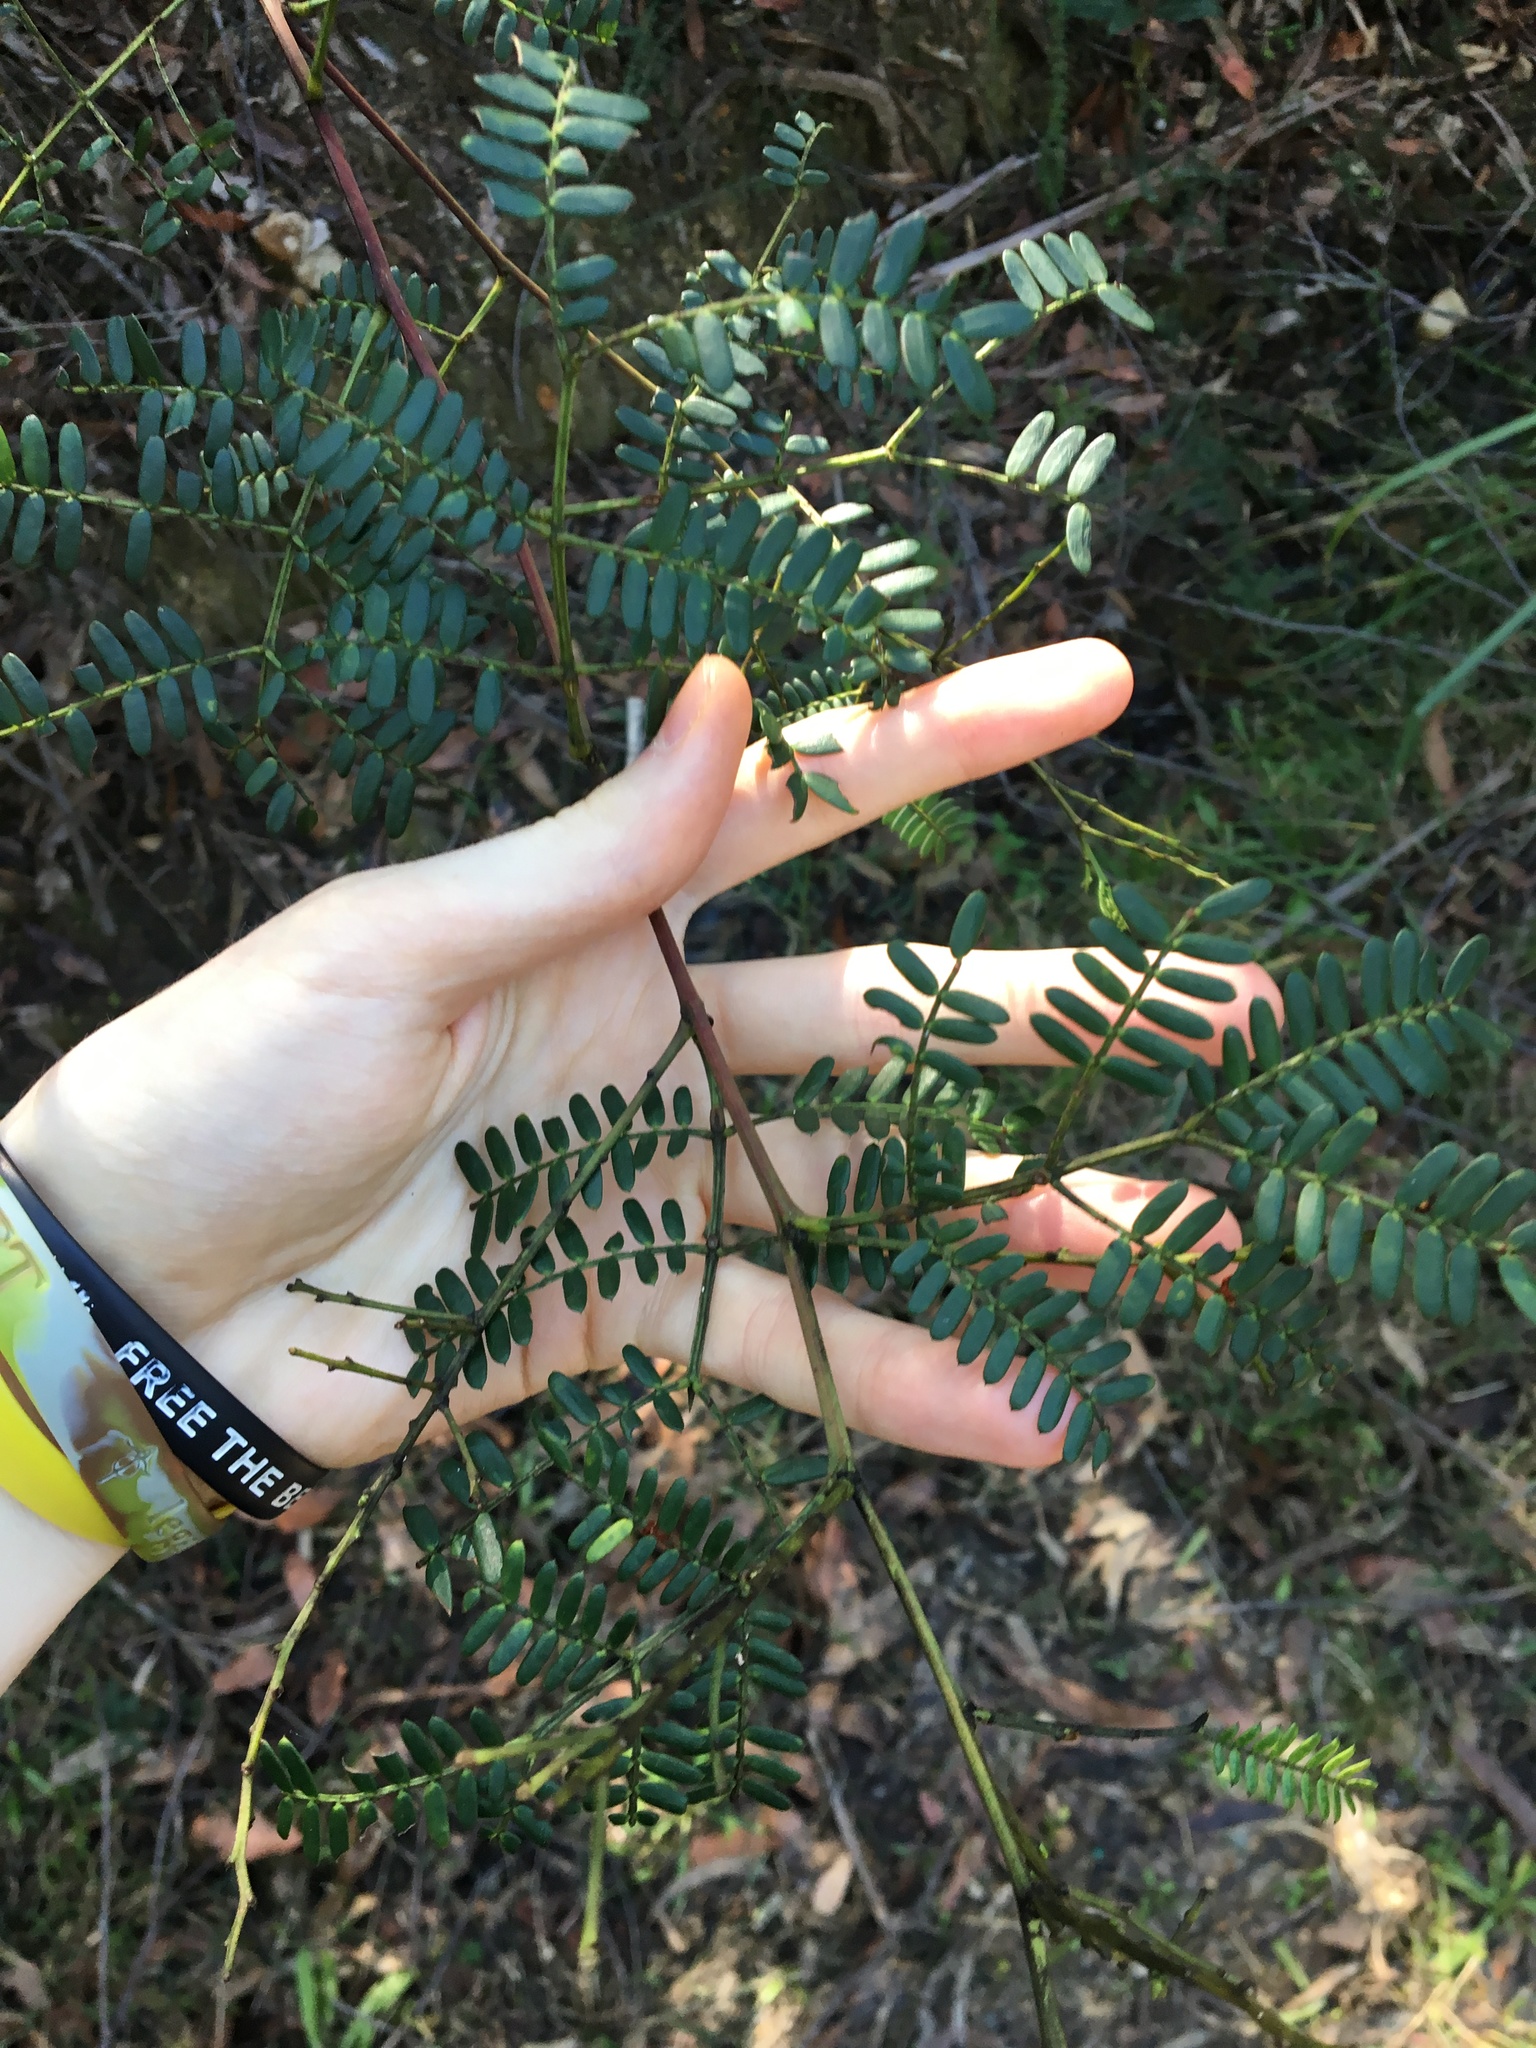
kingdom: Plantae
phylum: Tracheophyta
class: Magnoliopsida
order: Fabales
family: Fabaceae
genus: Acacia
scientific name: Acacia terminalis
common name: Cedar wattle
